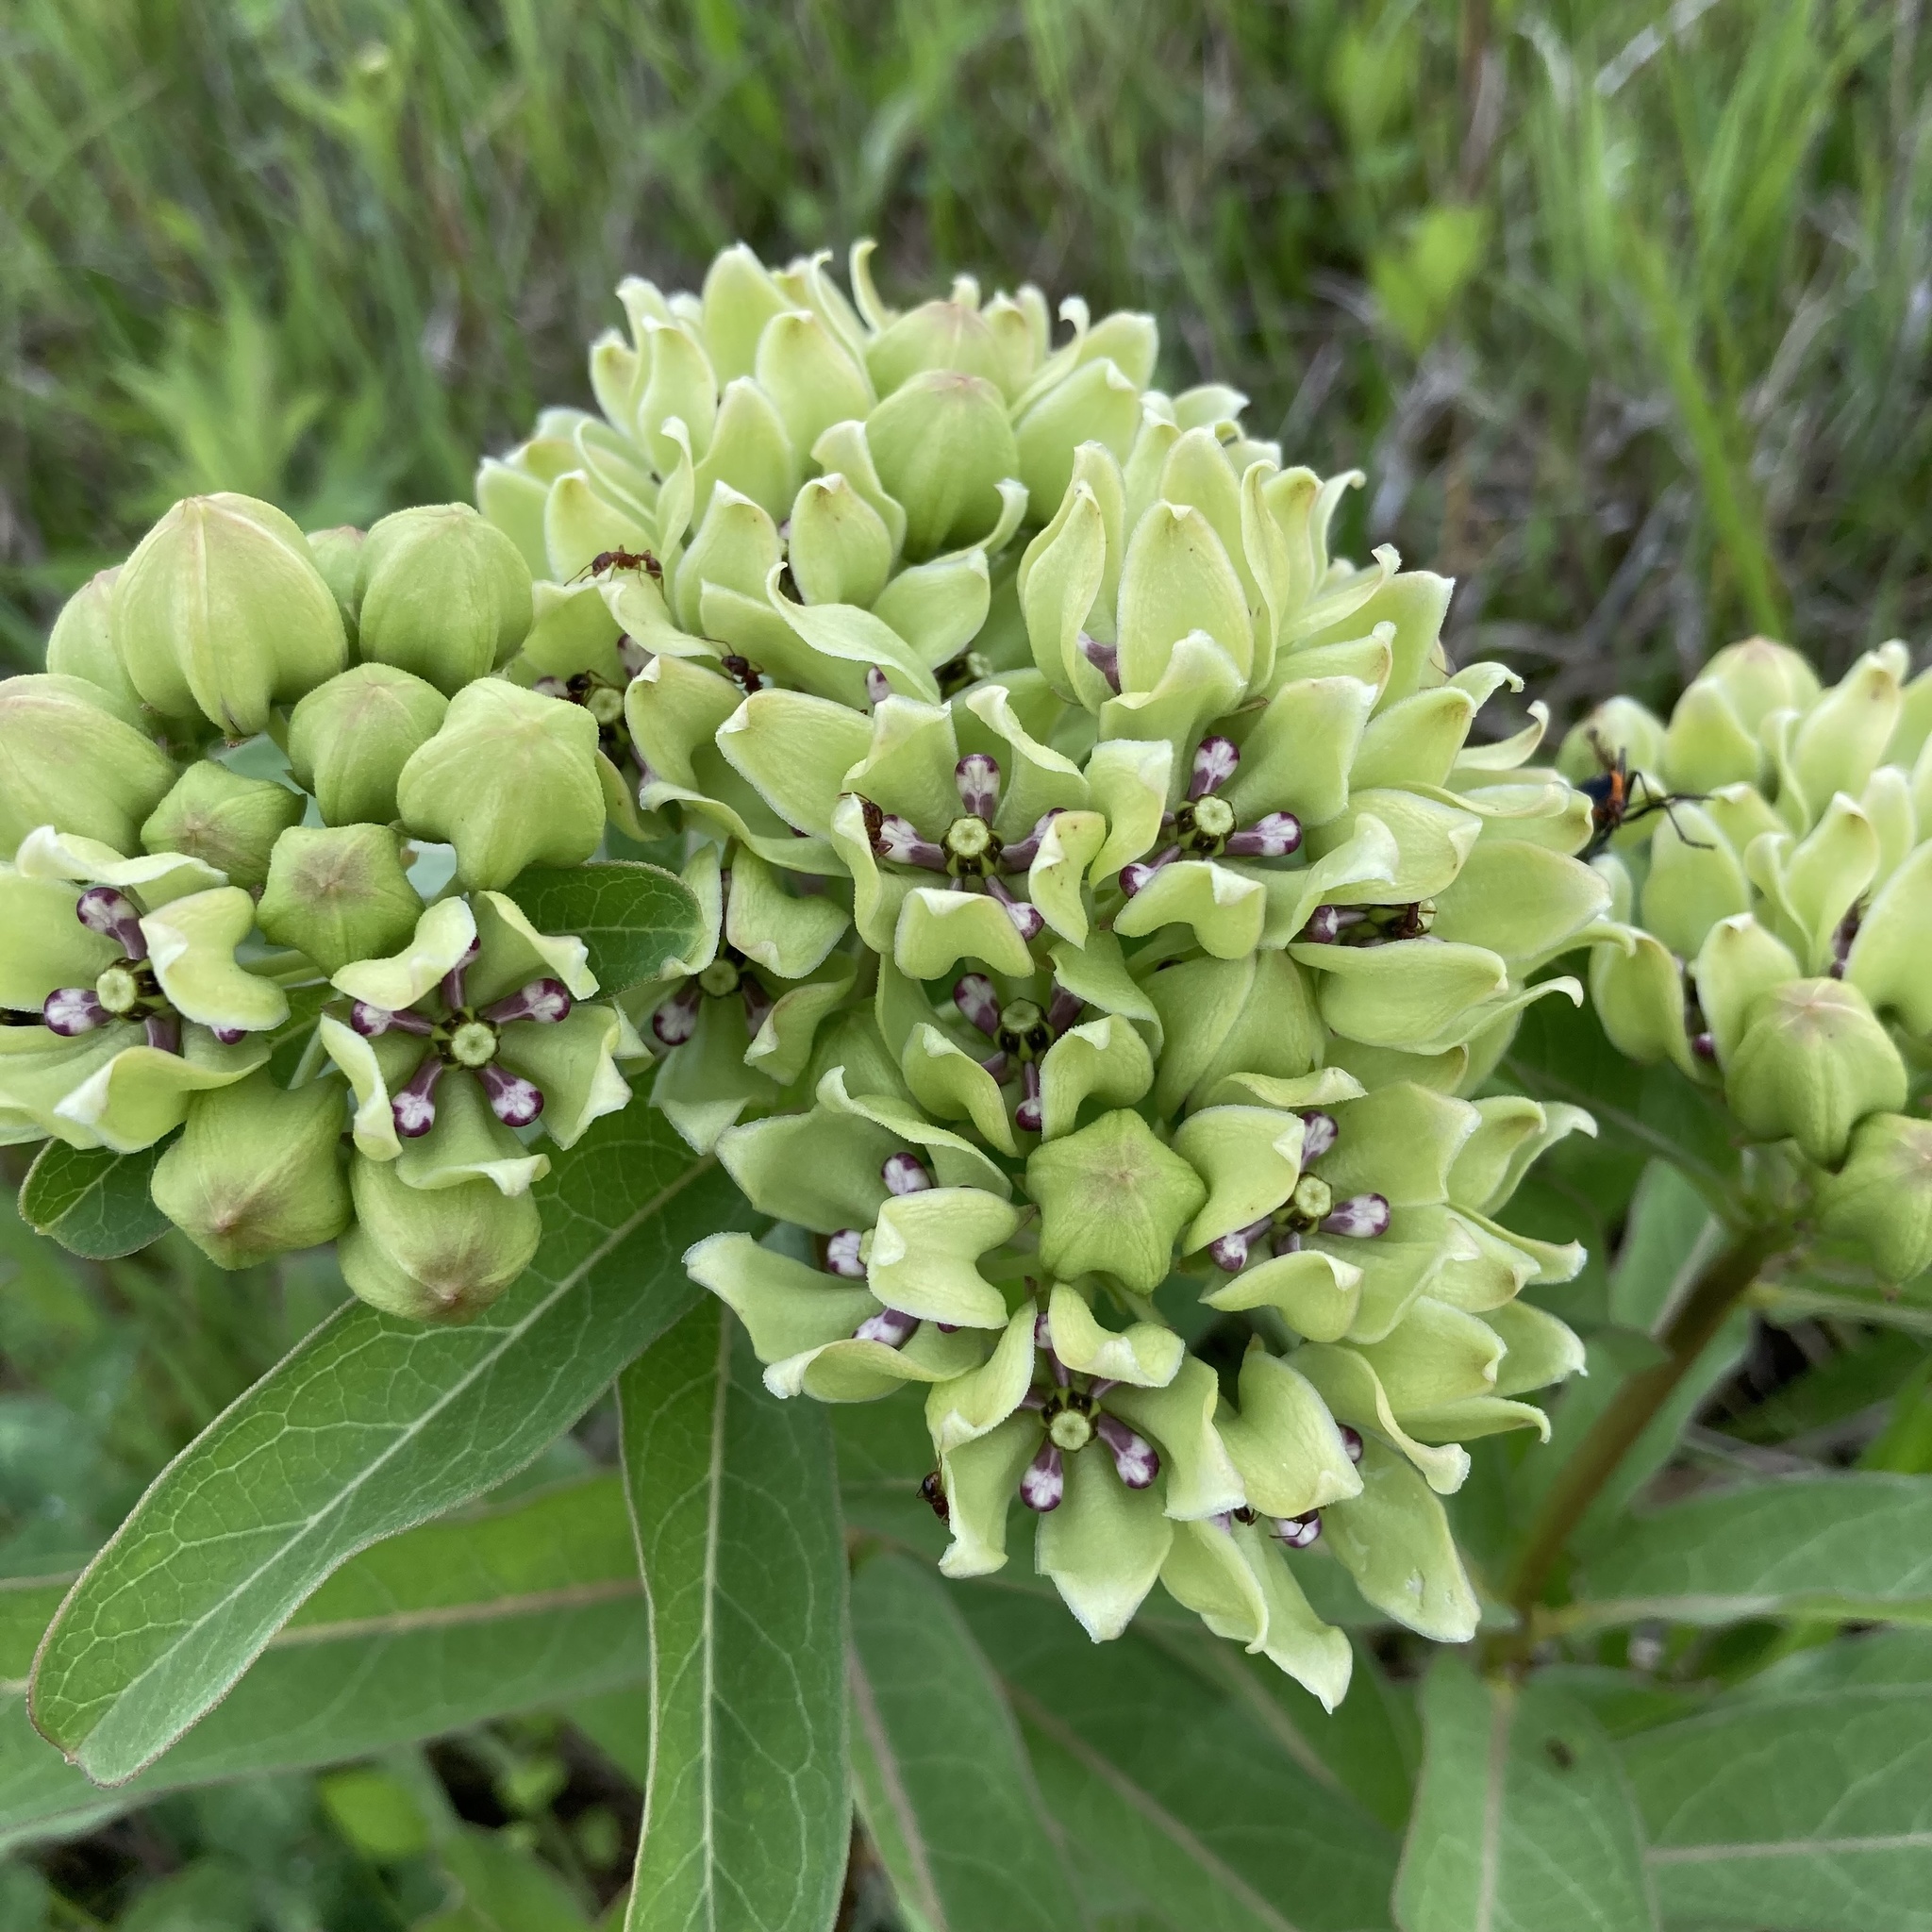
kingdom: Plantae
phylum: Tracheophyta
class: Magnoliopsida
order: Gentianales
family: Apocynaceae
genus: Asclepias
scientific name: Asclepias viridis
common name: Antelope-horns
